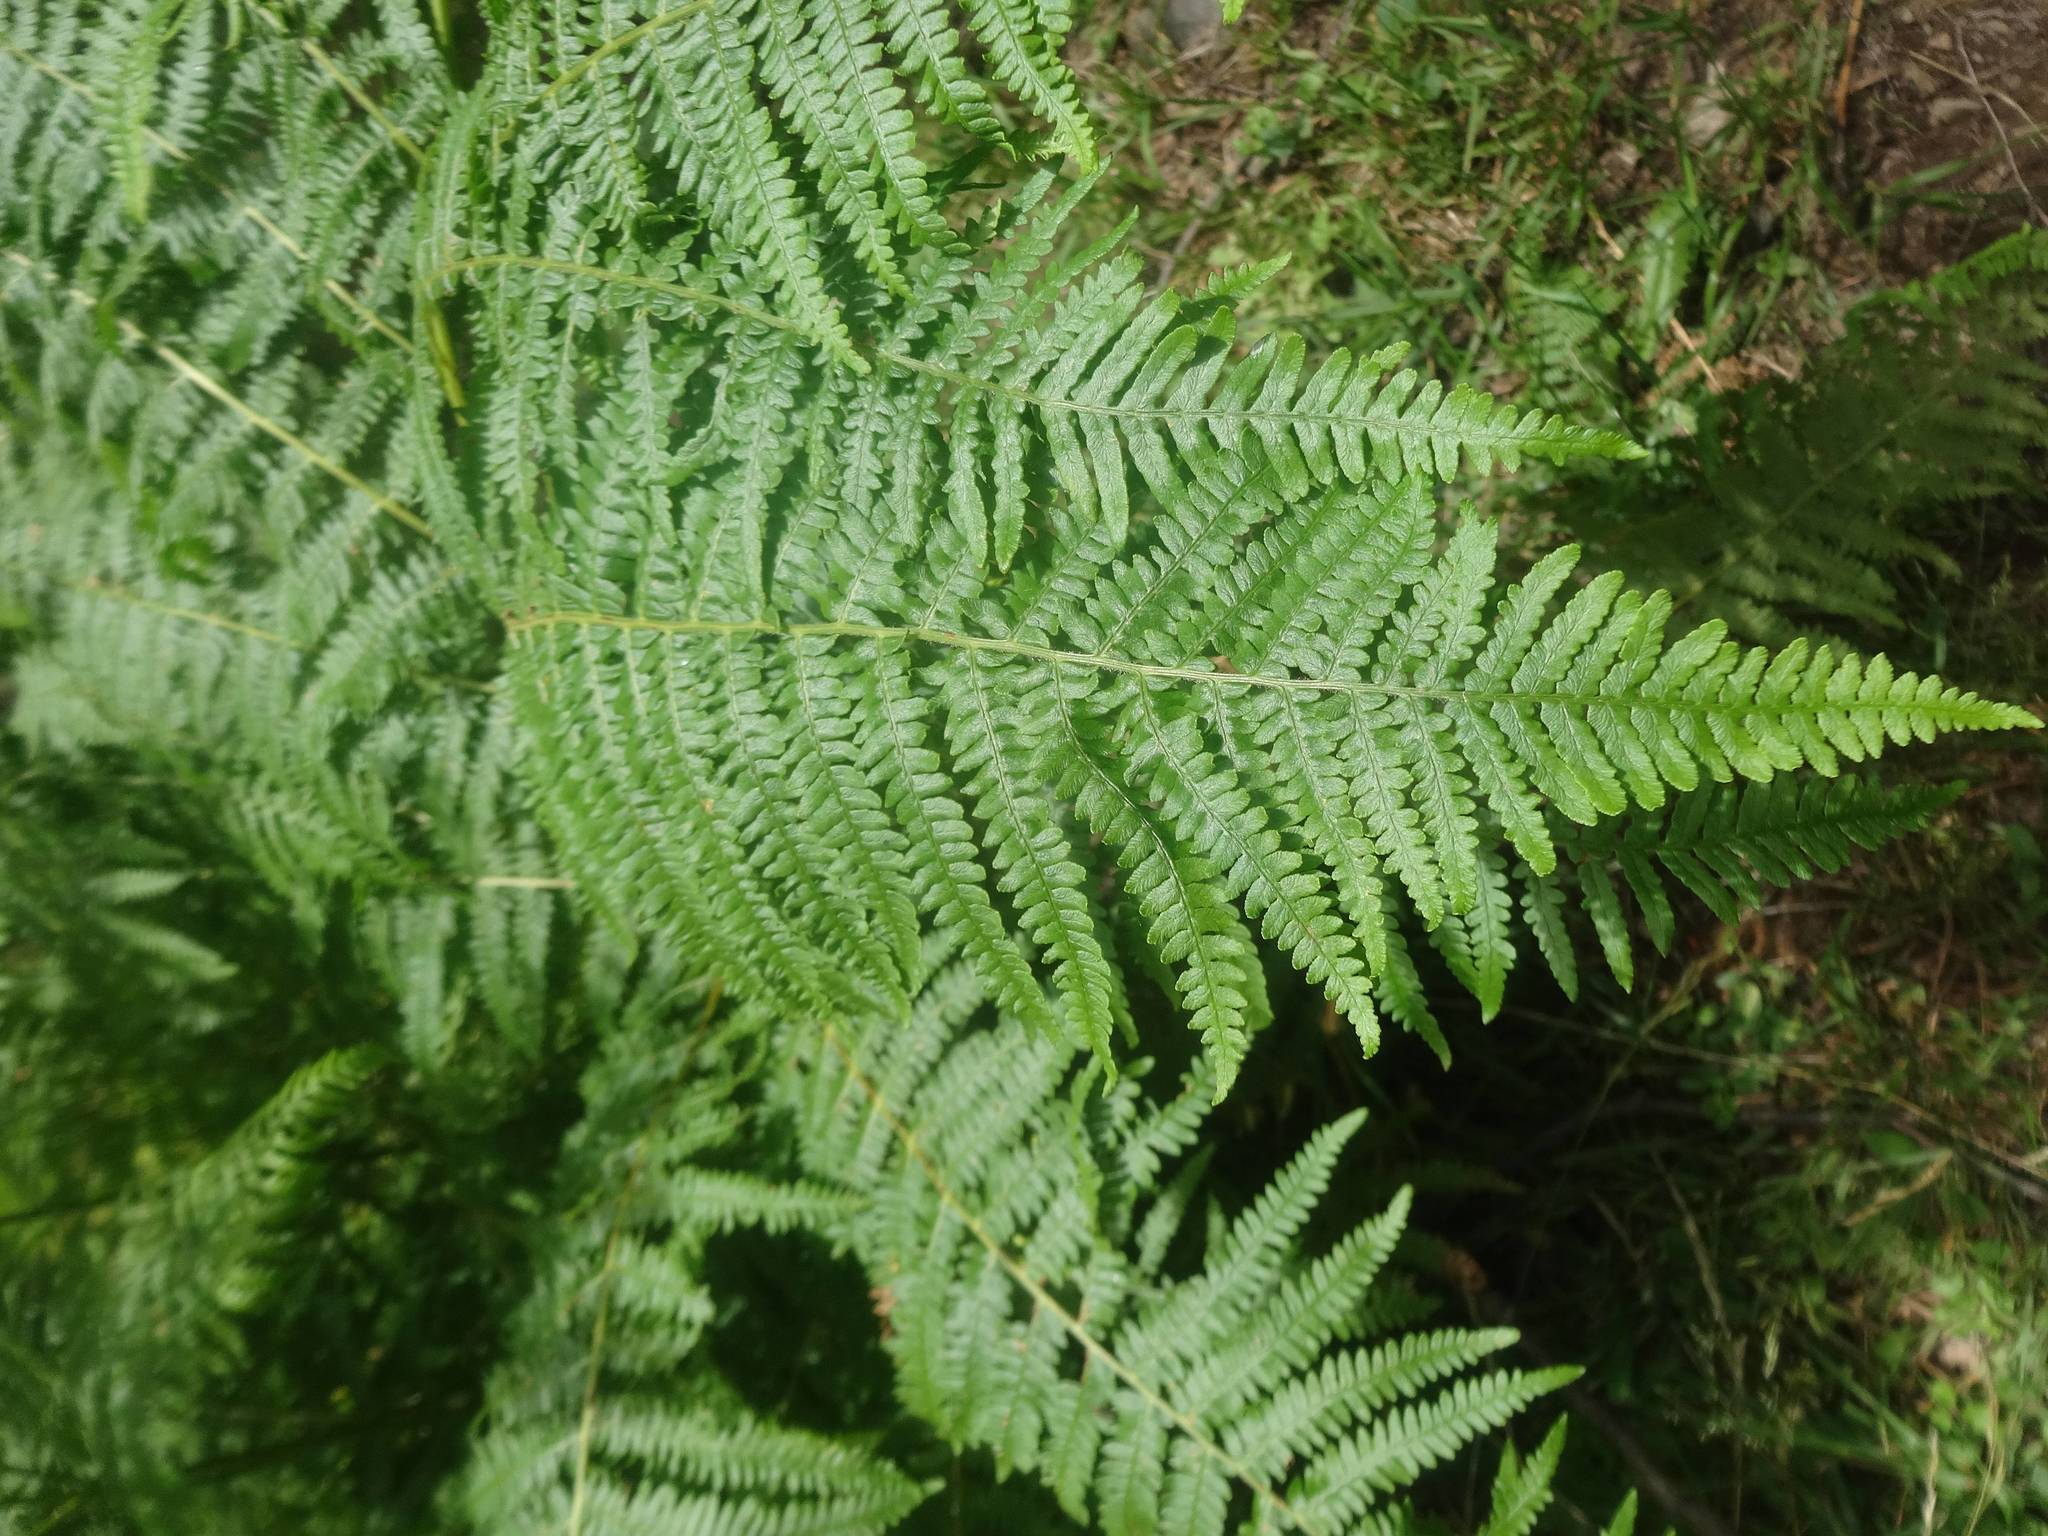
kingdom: Plantae
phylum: Tracheophyta
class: Polypodiopsida
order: Polypodiales
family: Dennstaedtiaceae
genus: Pteridium
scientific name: Pteridium aquilinum
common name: Bracken
